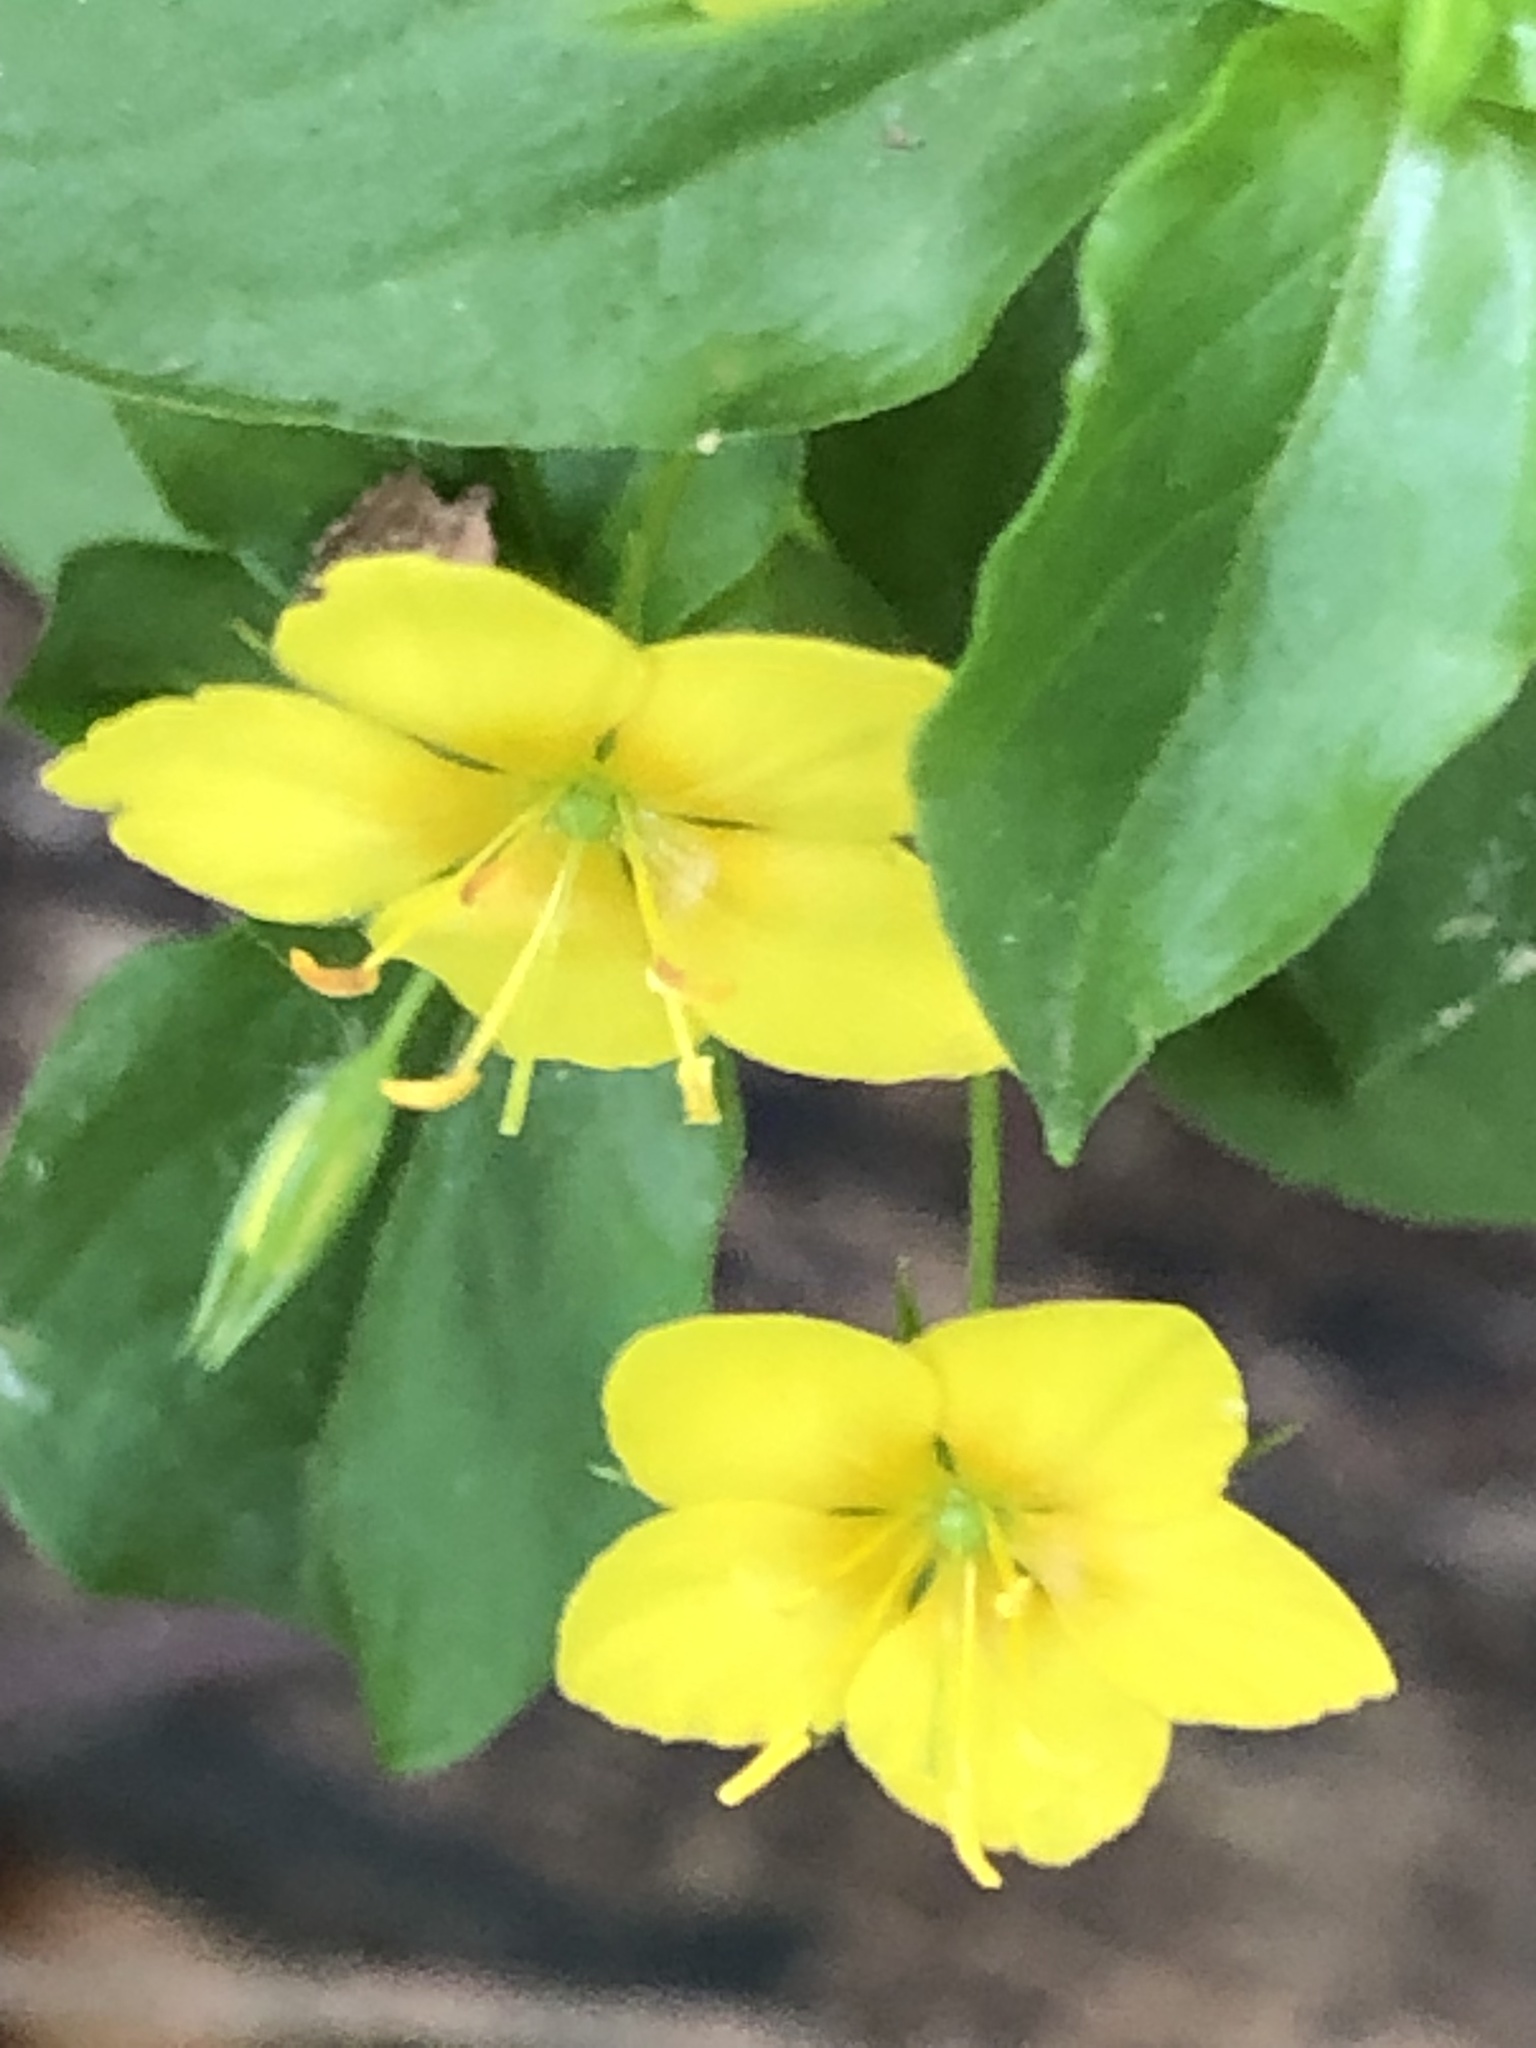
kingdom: Plantae
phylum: Tracheophyta
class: Magnoliopsida
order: Ericales
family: Primulaceae
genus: Lysimachia
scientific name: Lysimachia nemorum
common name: Yellow pimpernel
